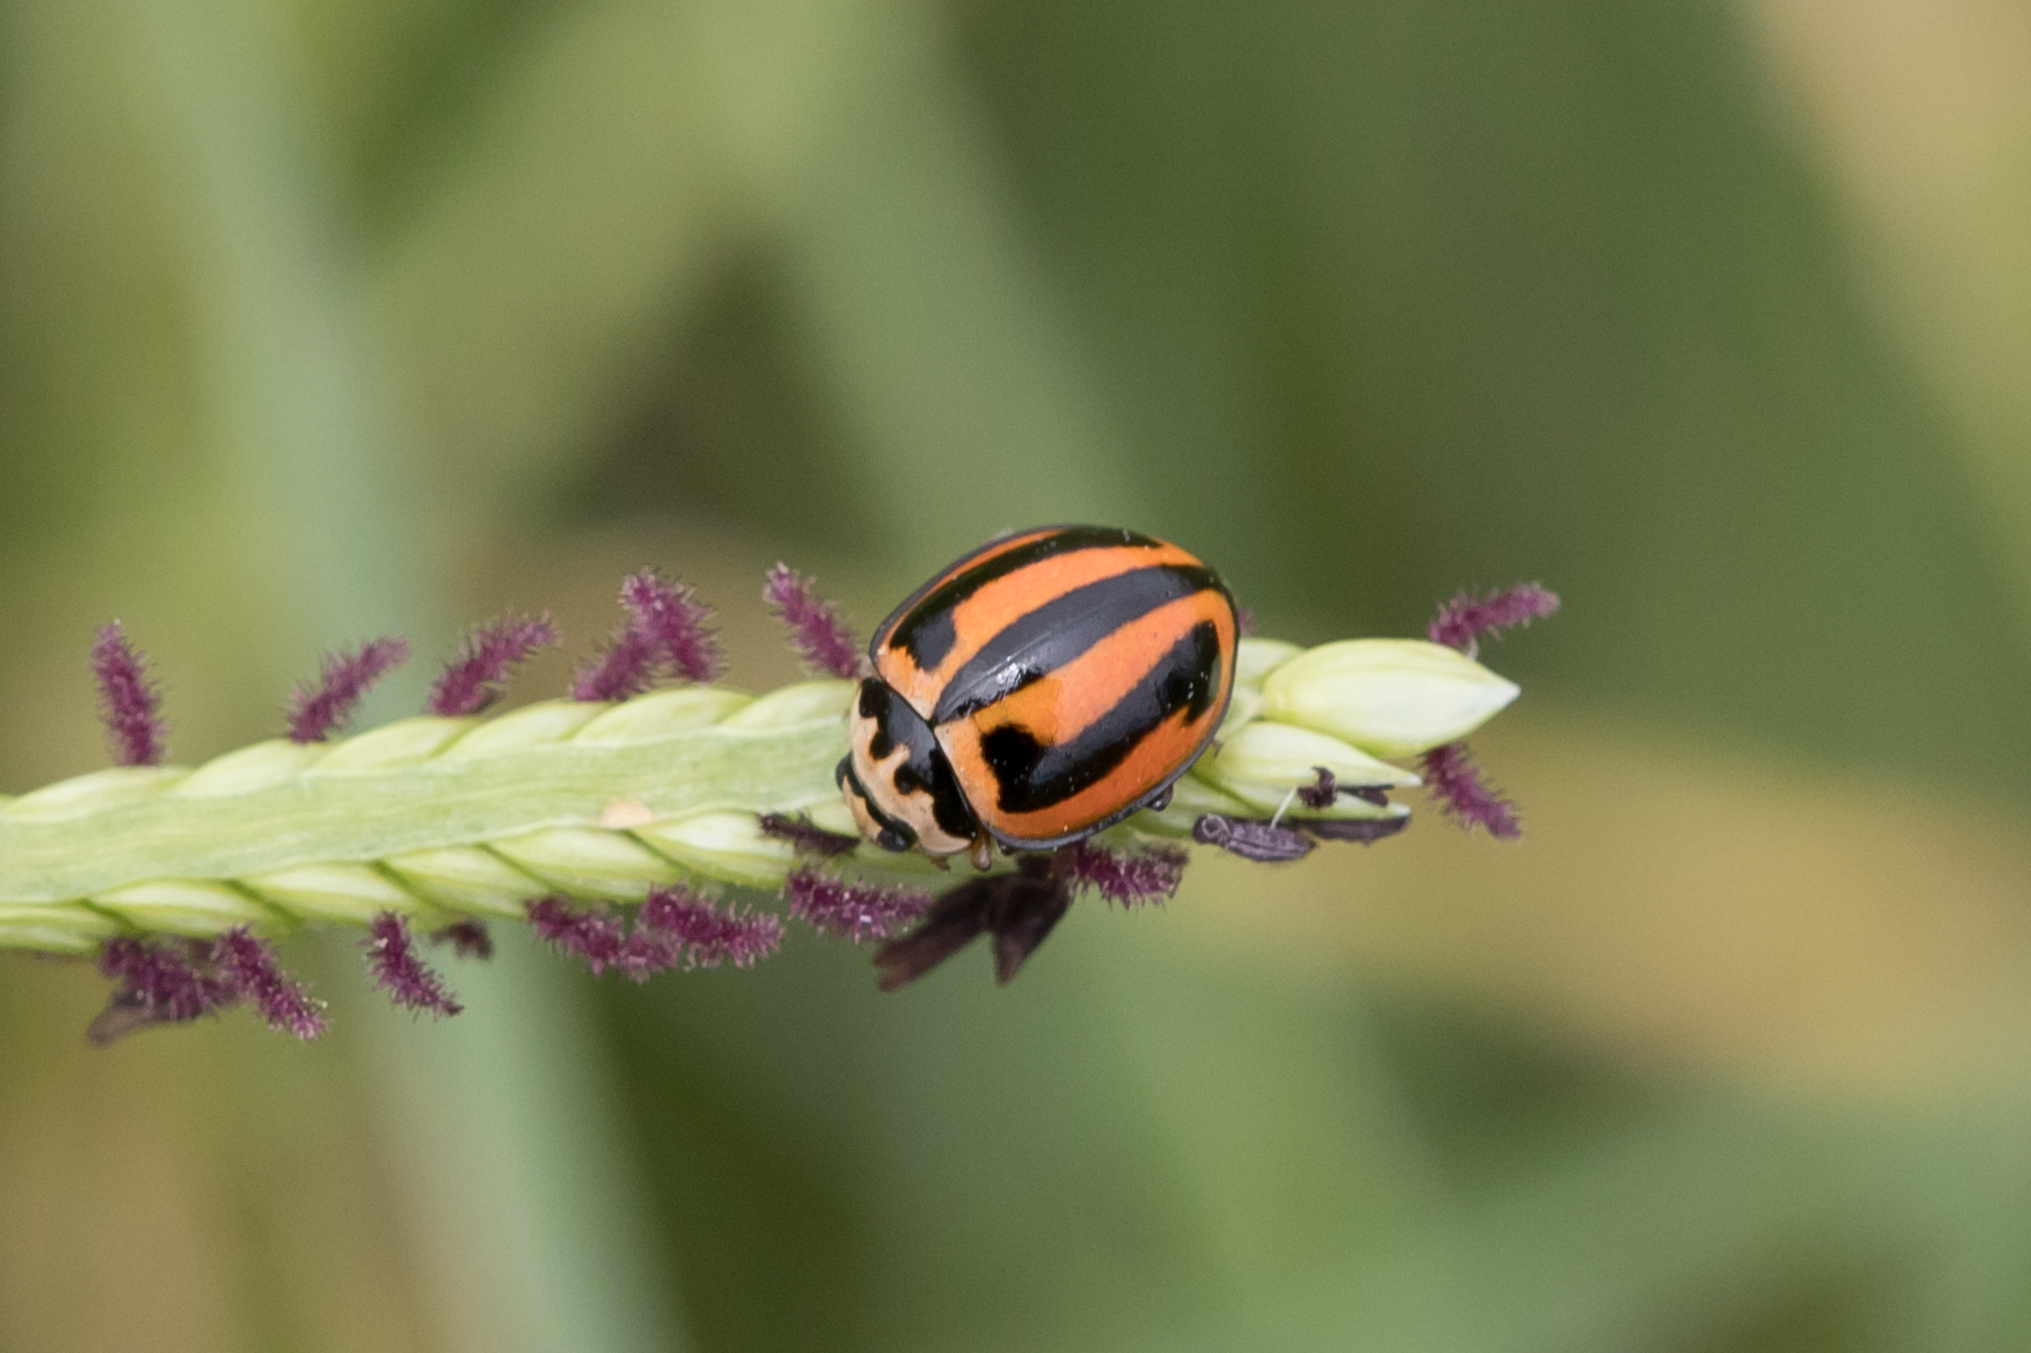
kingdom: Animalia
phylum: Arthropoda
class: Insecta
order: Coleoptera
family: Coccinellidae
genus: Micraspis
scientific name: Micraspis frenata
